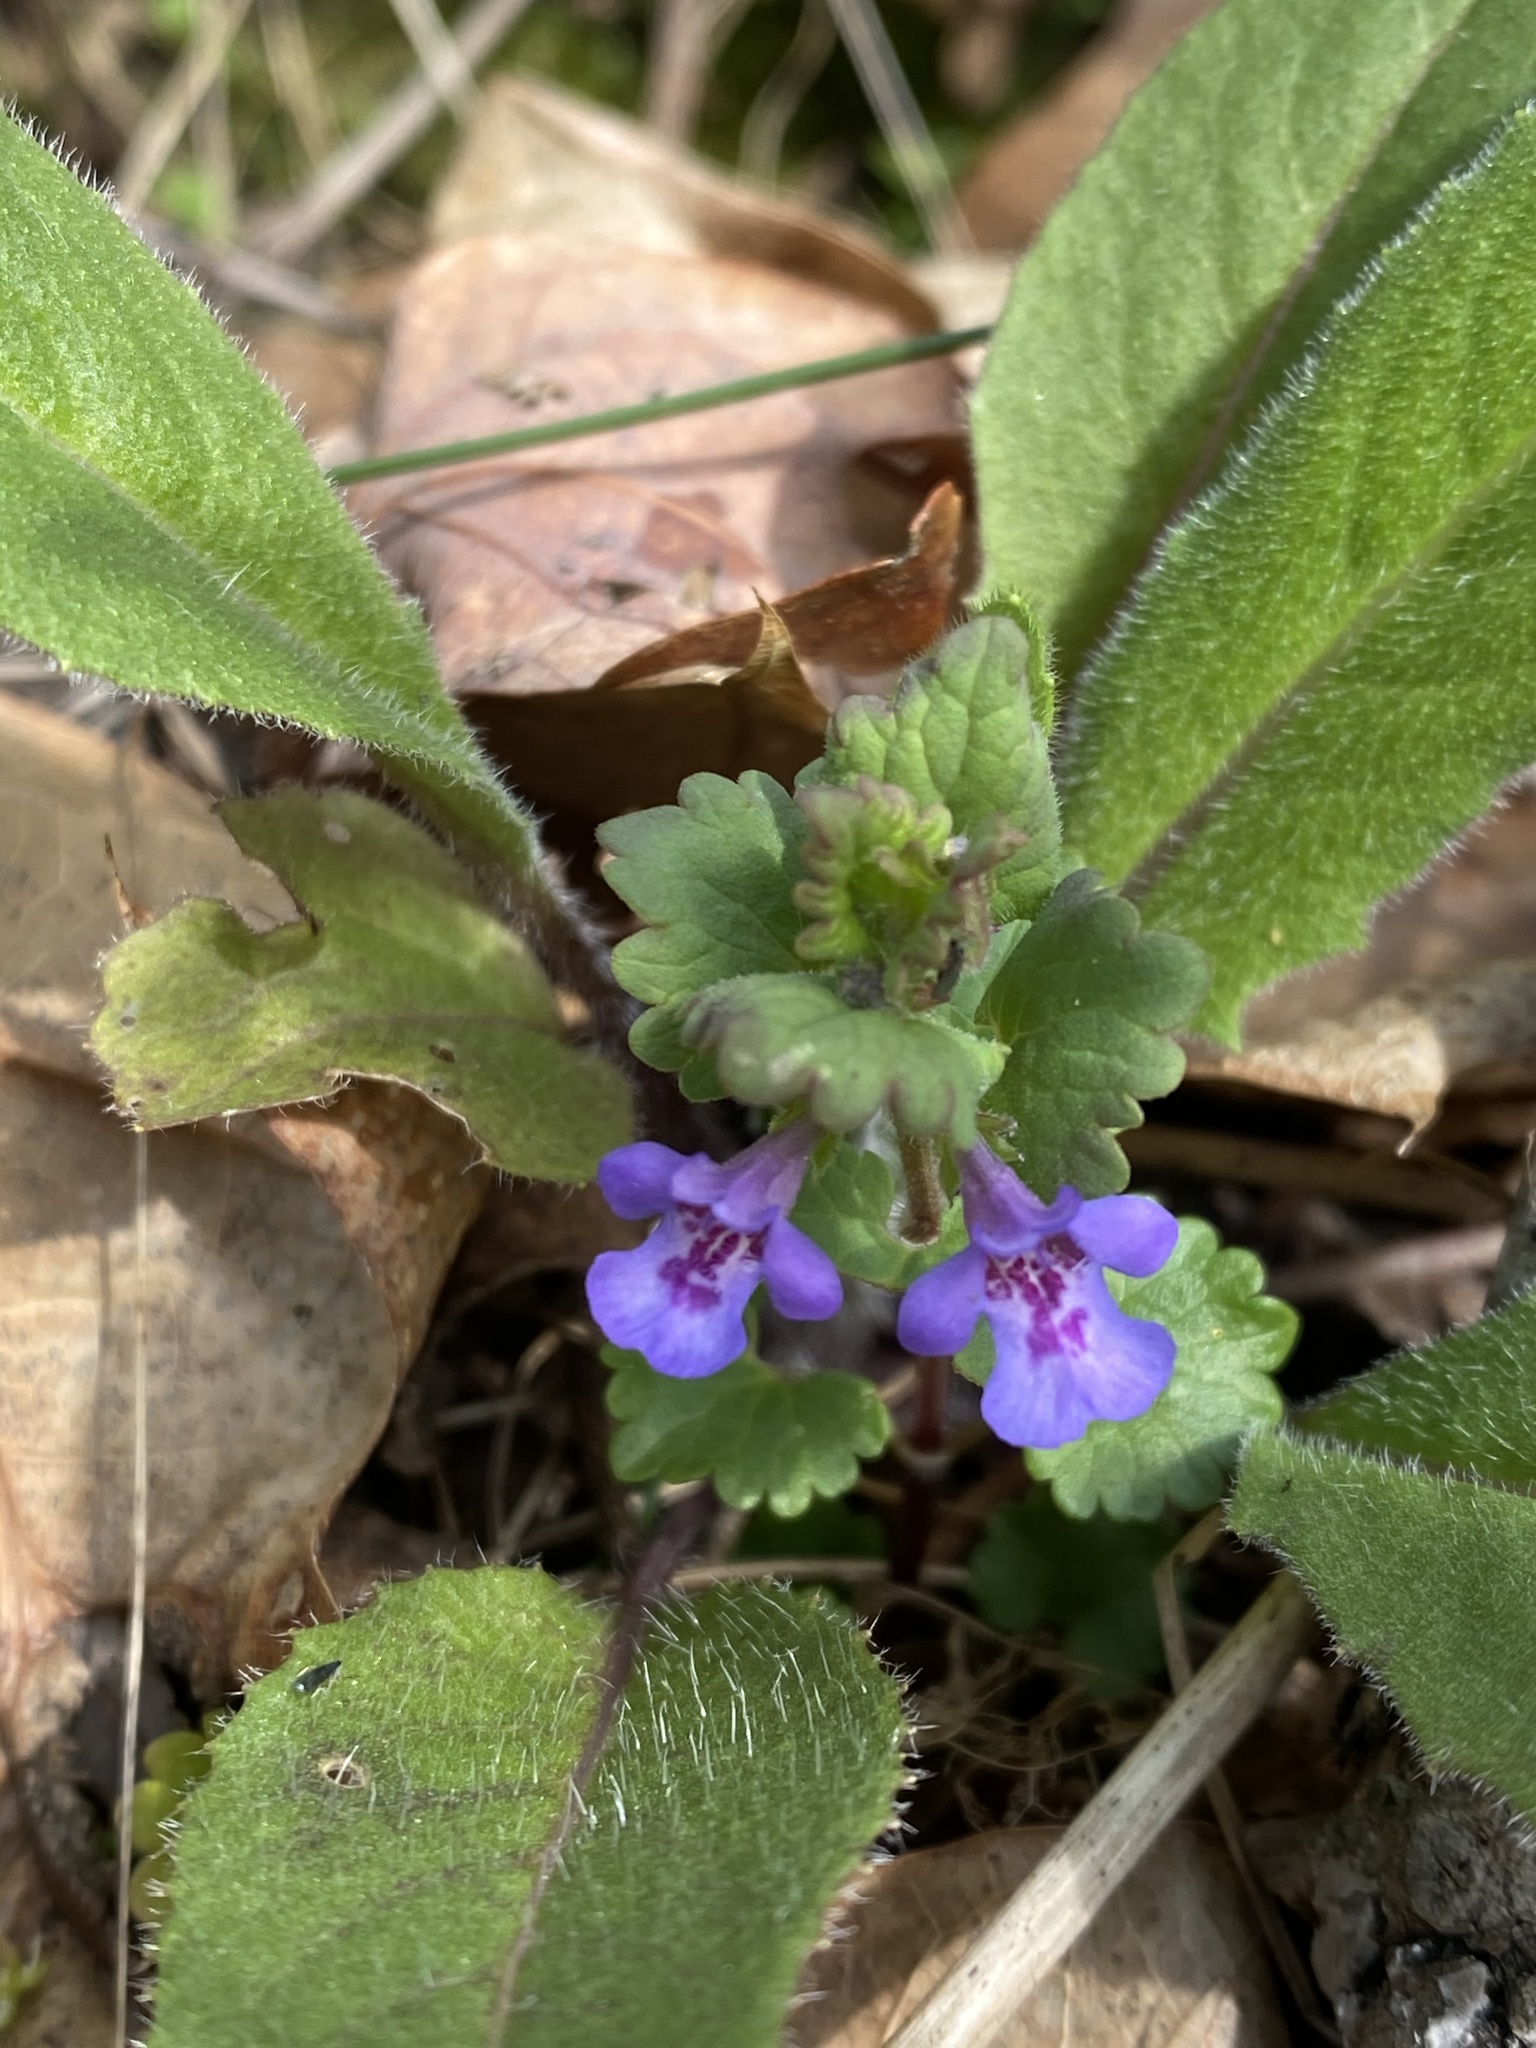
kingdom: Plantae
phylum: Tracheophyta
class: Magnoliopsida
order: Lamiales
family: Lamiaceae
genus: Glechoma
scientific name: Glechoma hederacea
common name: Ground ivy
